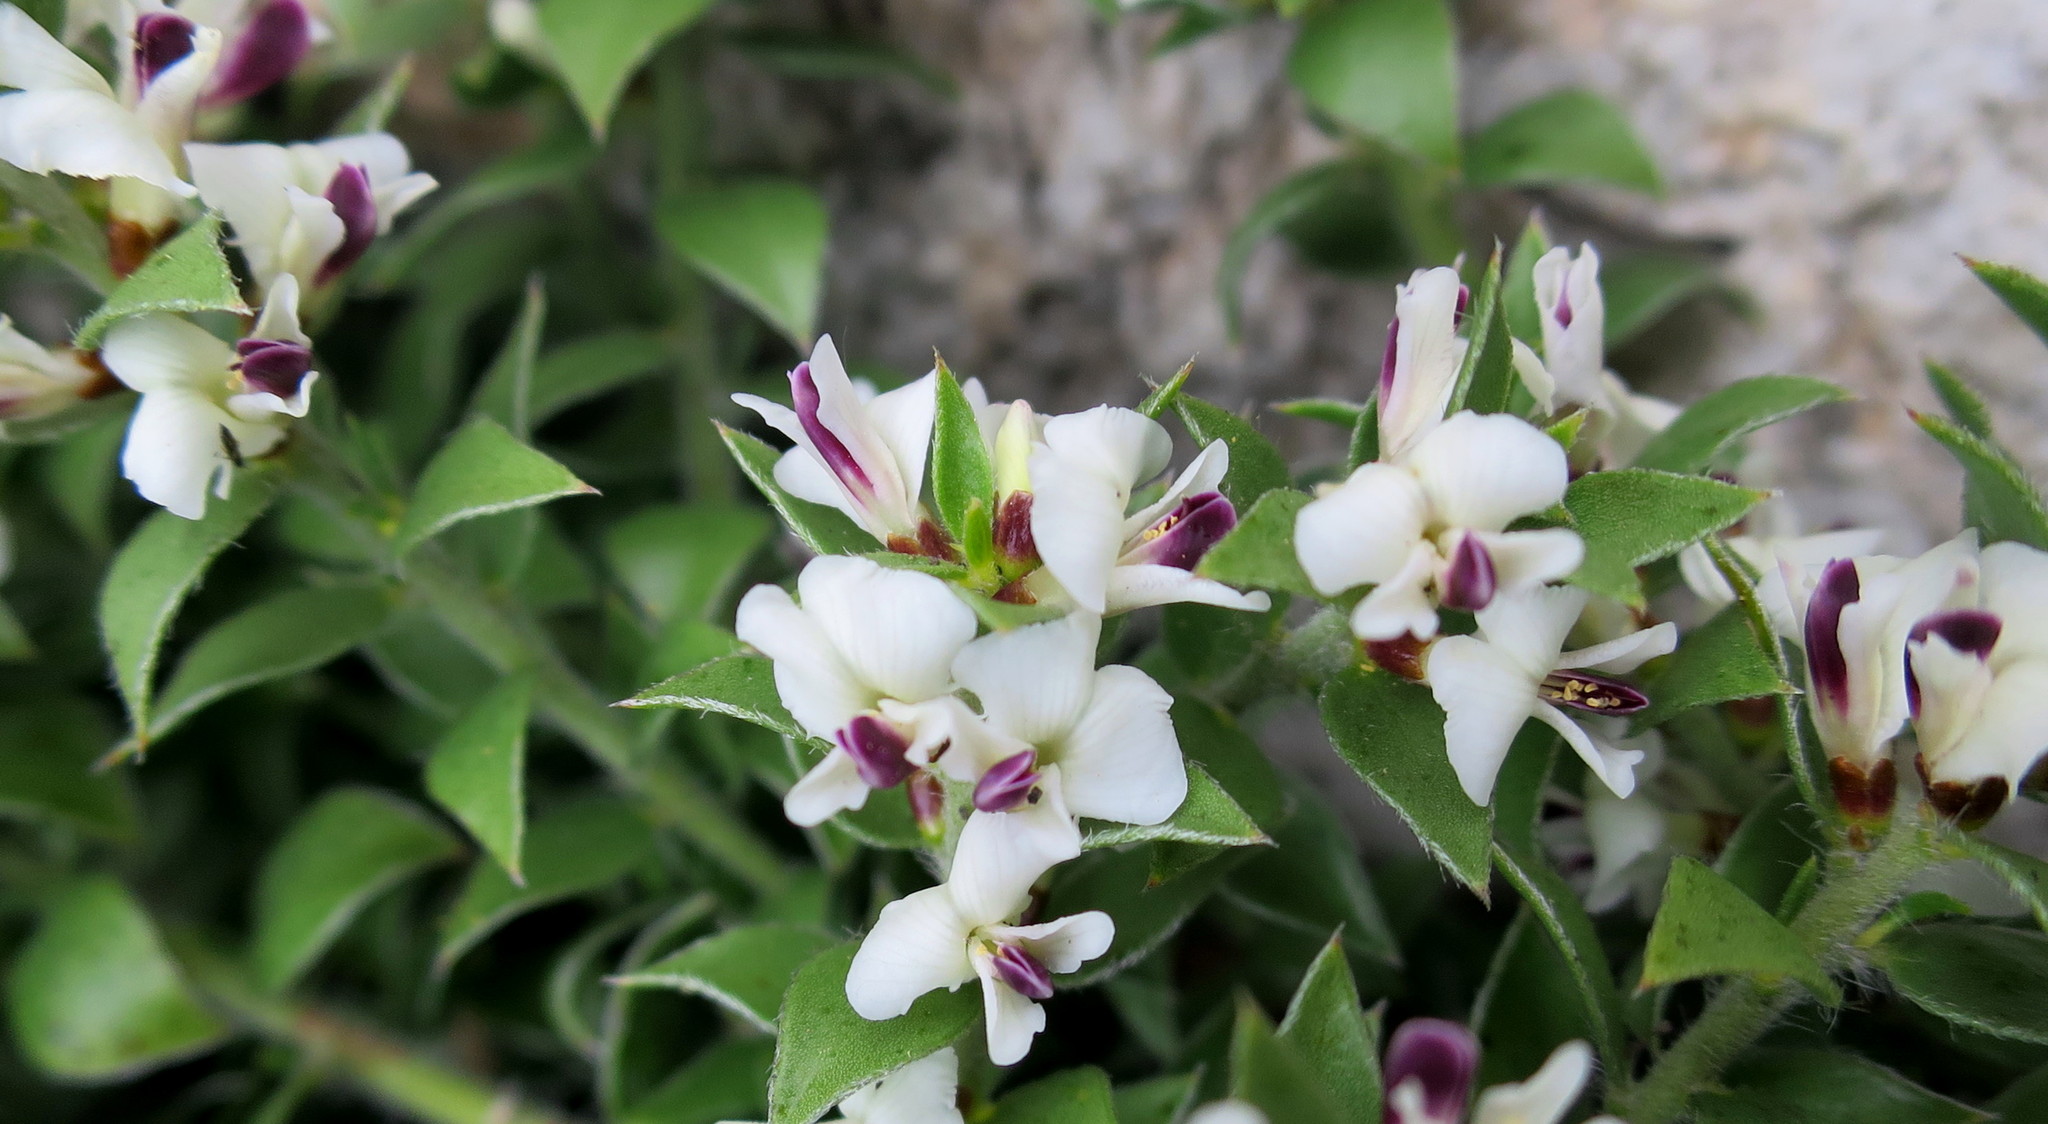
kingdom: Plantae
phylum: Tracheophyta
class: Magnoliopsida
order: Fabales
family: Fabaceae
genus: Amphithalea
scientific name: Amphithalea micrantha
